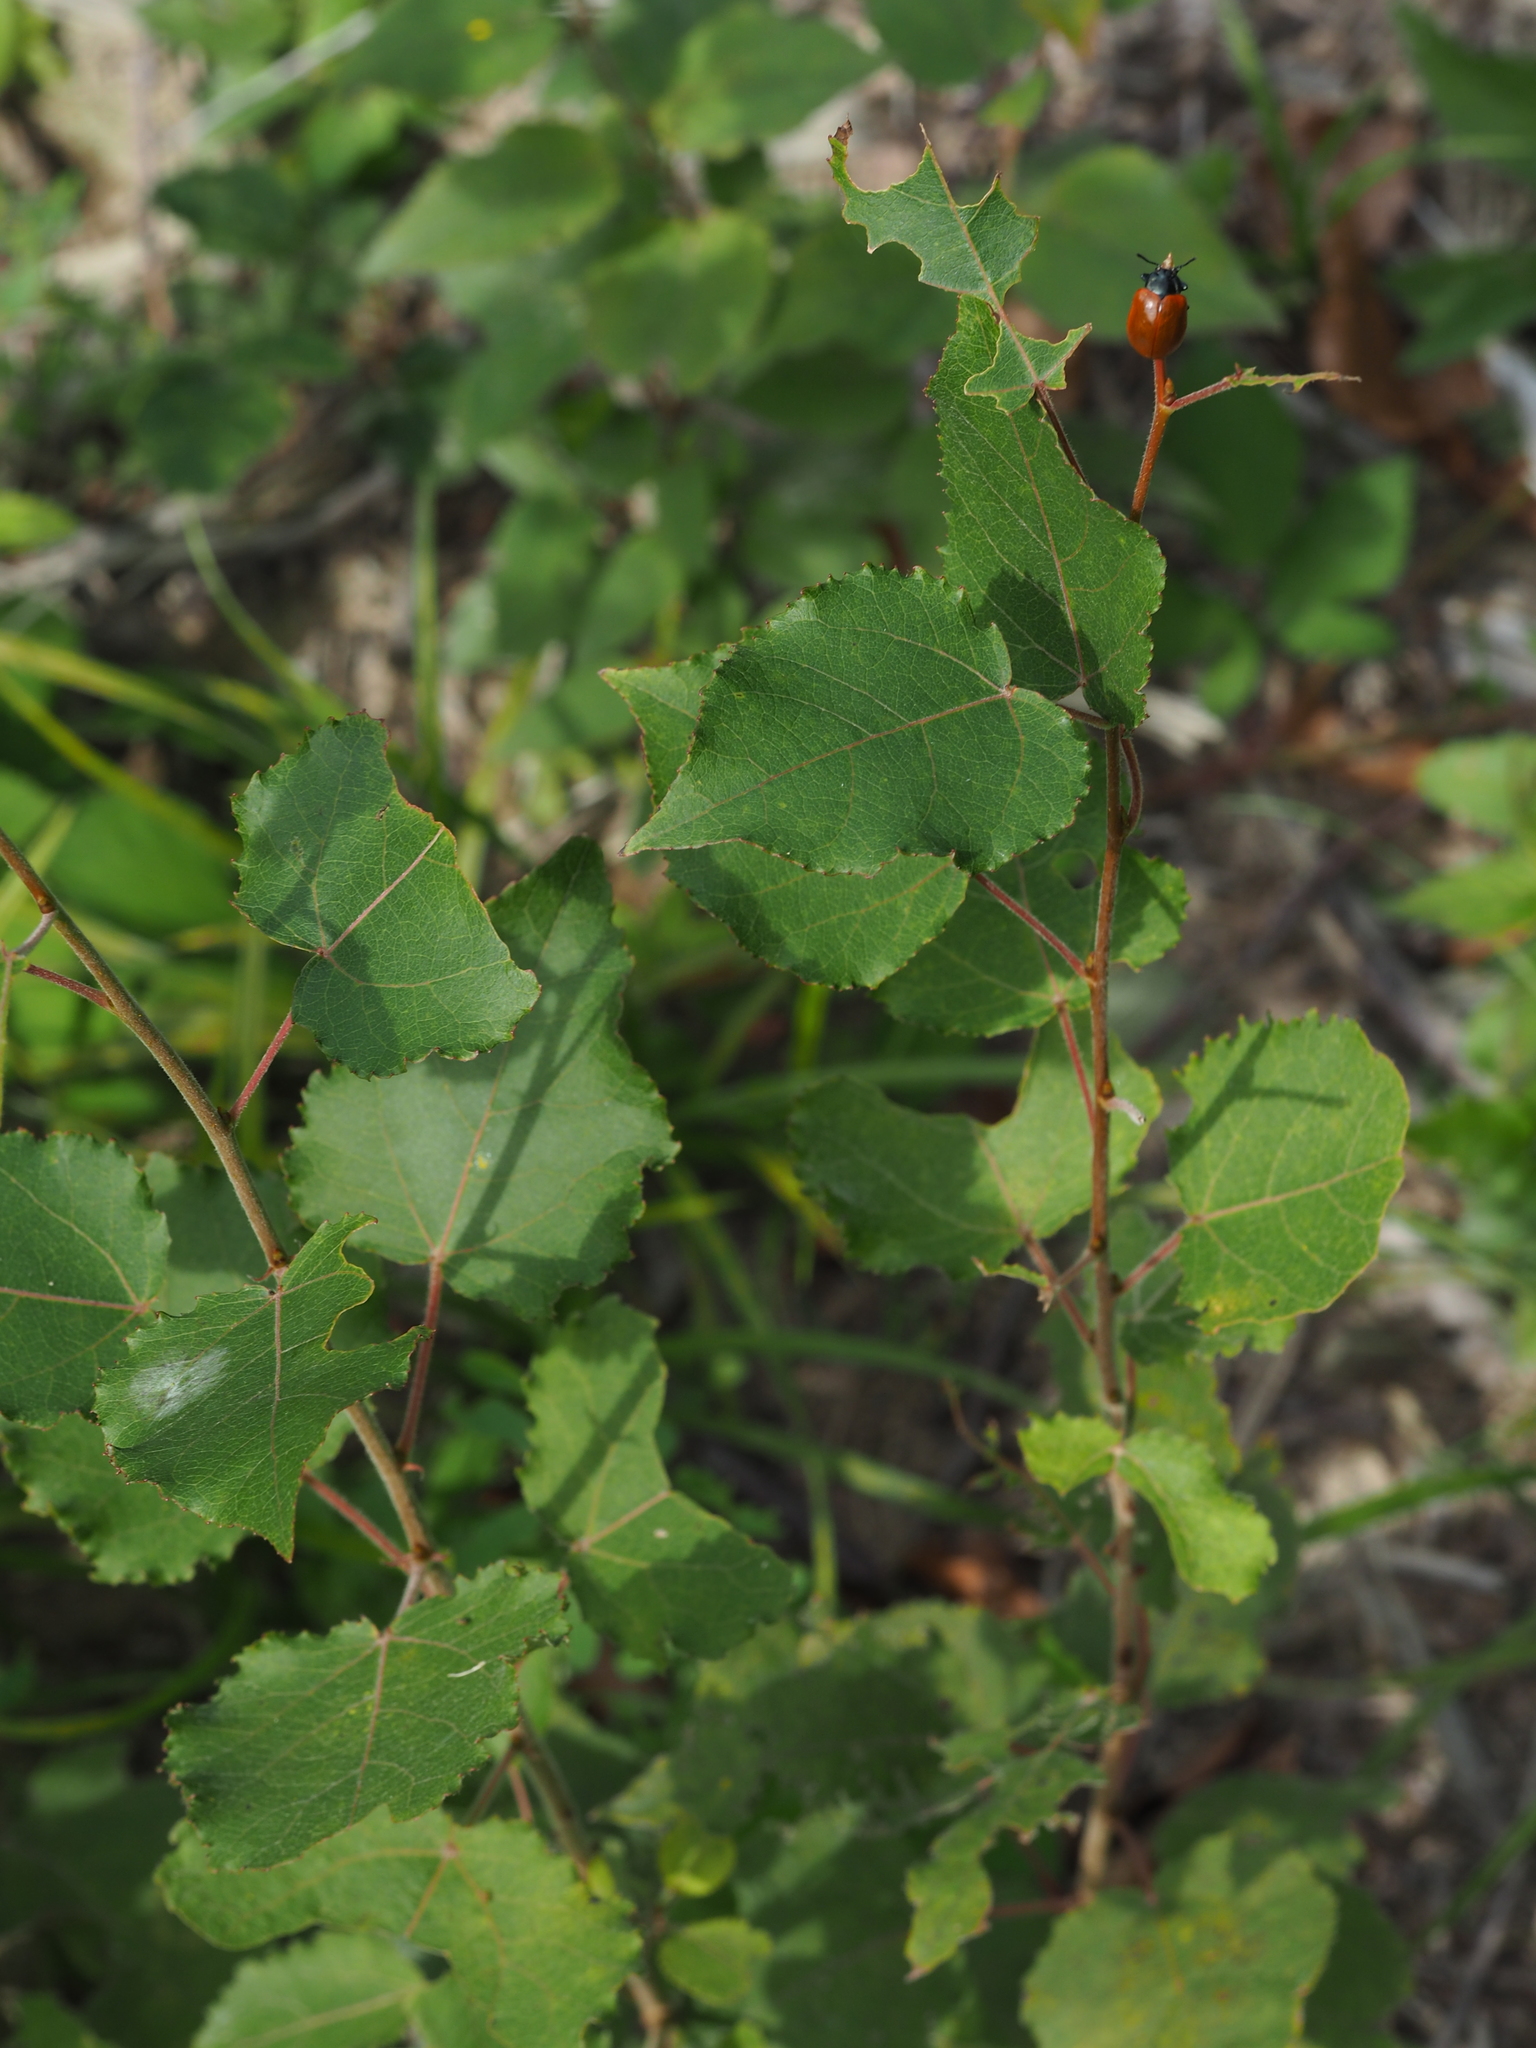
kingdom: Animalia
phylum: Arthropoda
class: Insecta
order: Coleoptera
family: Chrysomelidae
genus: Chrysomela
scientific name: Chrysomela populi
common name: Red poplar leaf beetle
